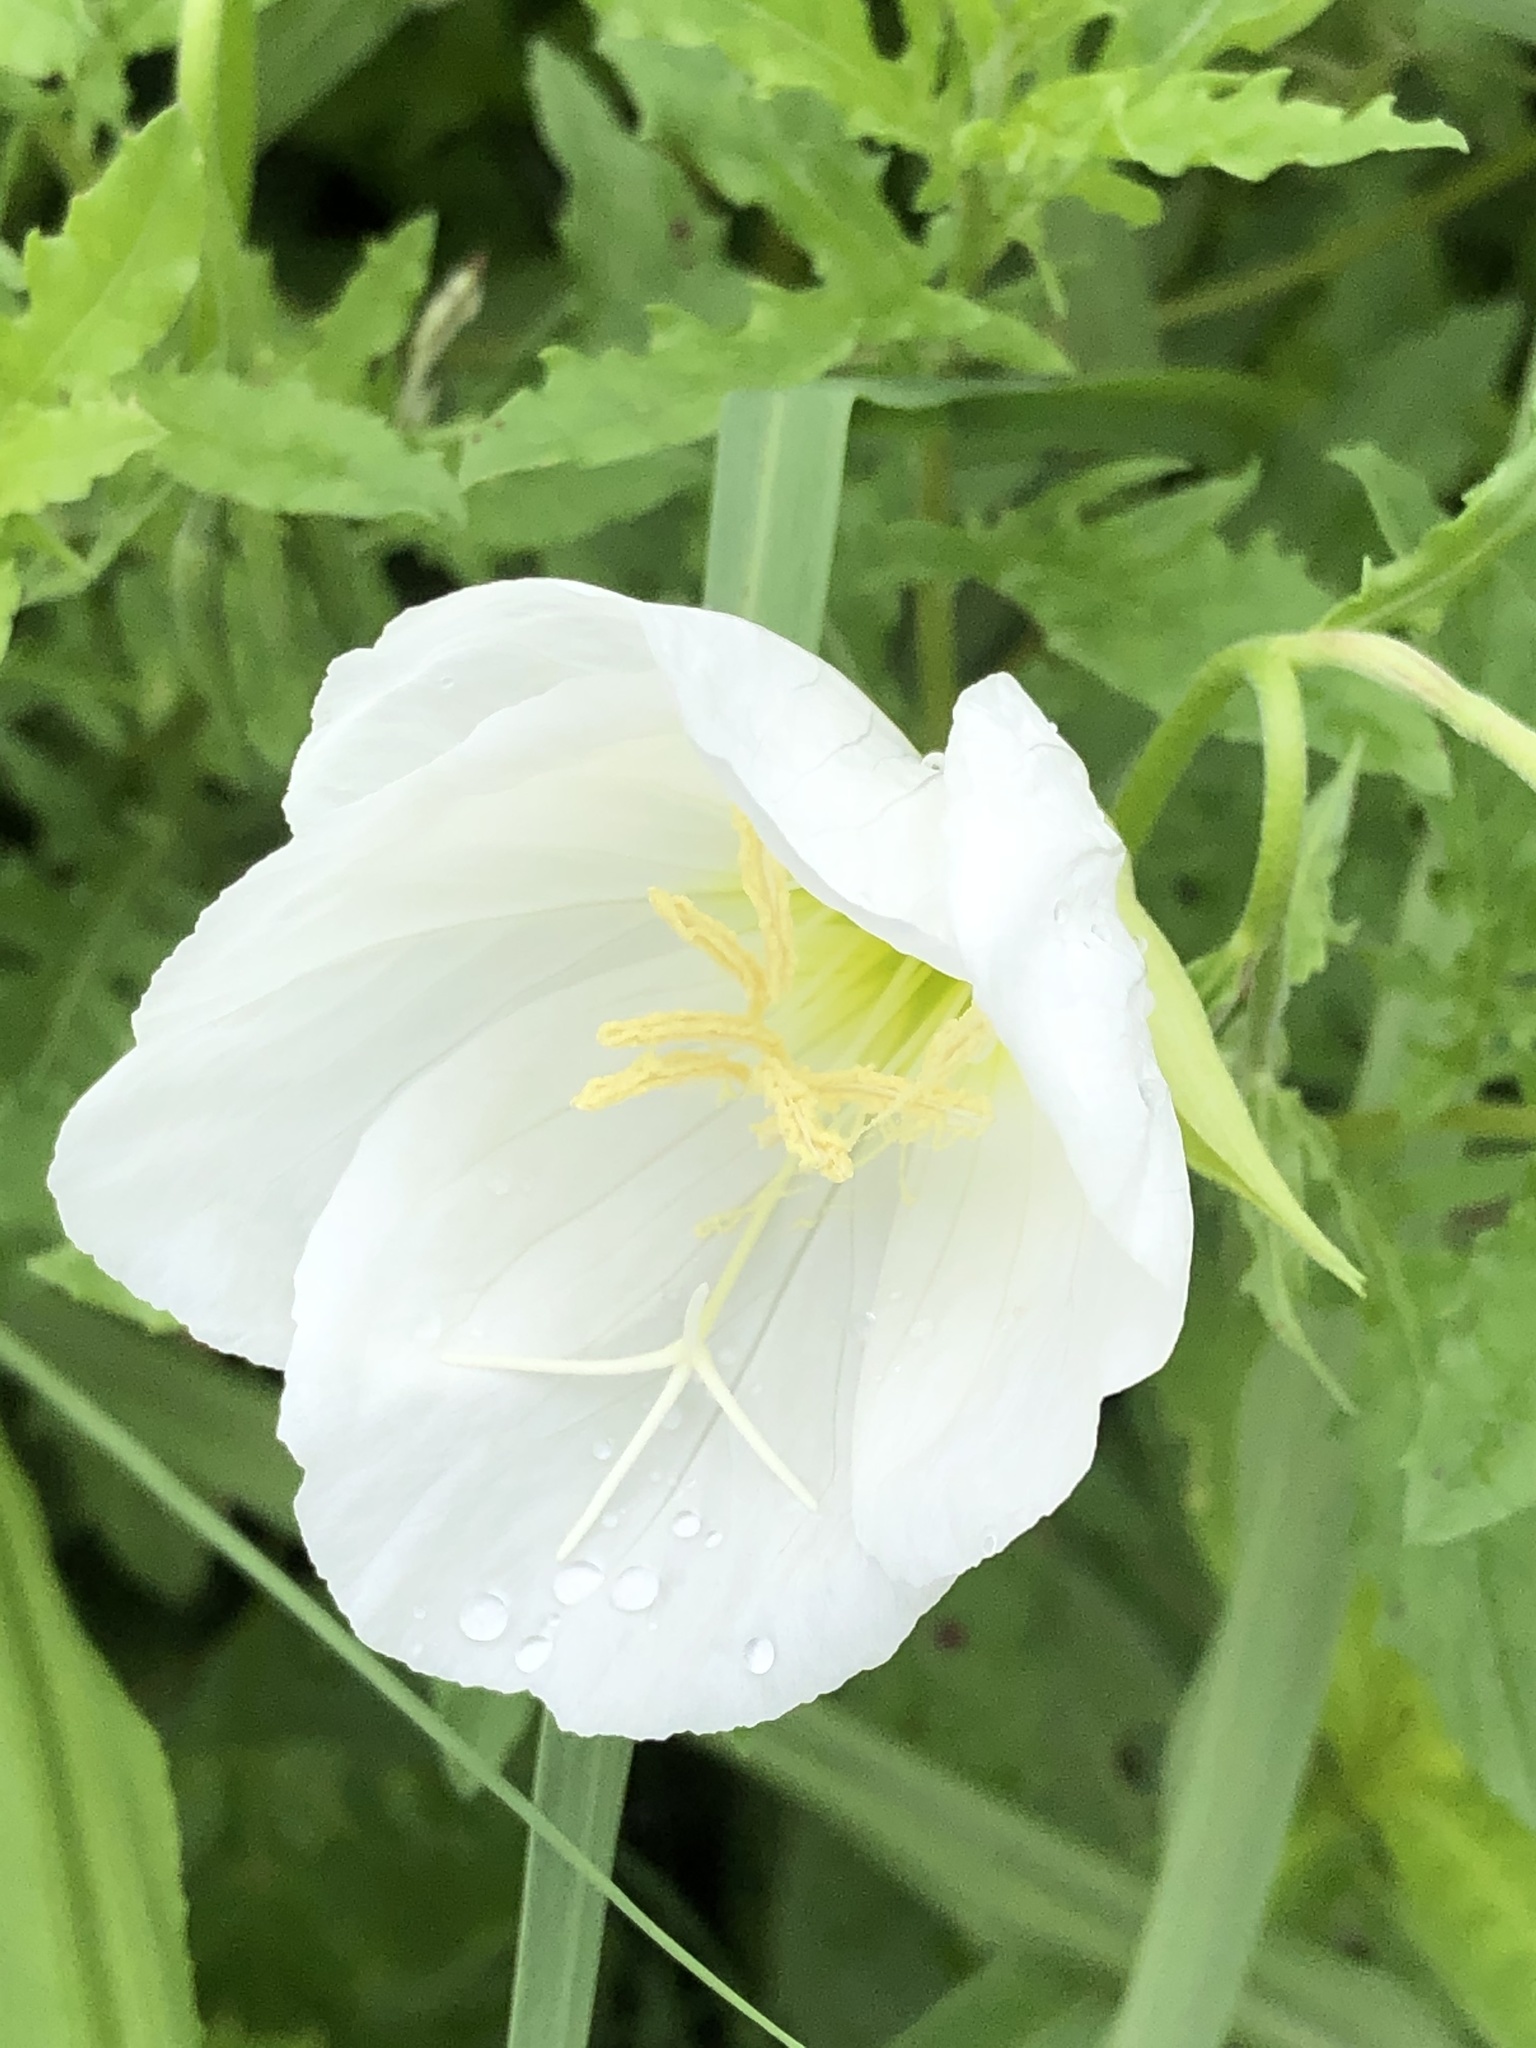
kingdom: Plantae
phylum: Tracheophyta
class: Magnoliopsida
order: Myrtales
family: Onagraceae
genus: Oenothera
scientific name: Oenothera speciosa
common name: White evening-primrose
